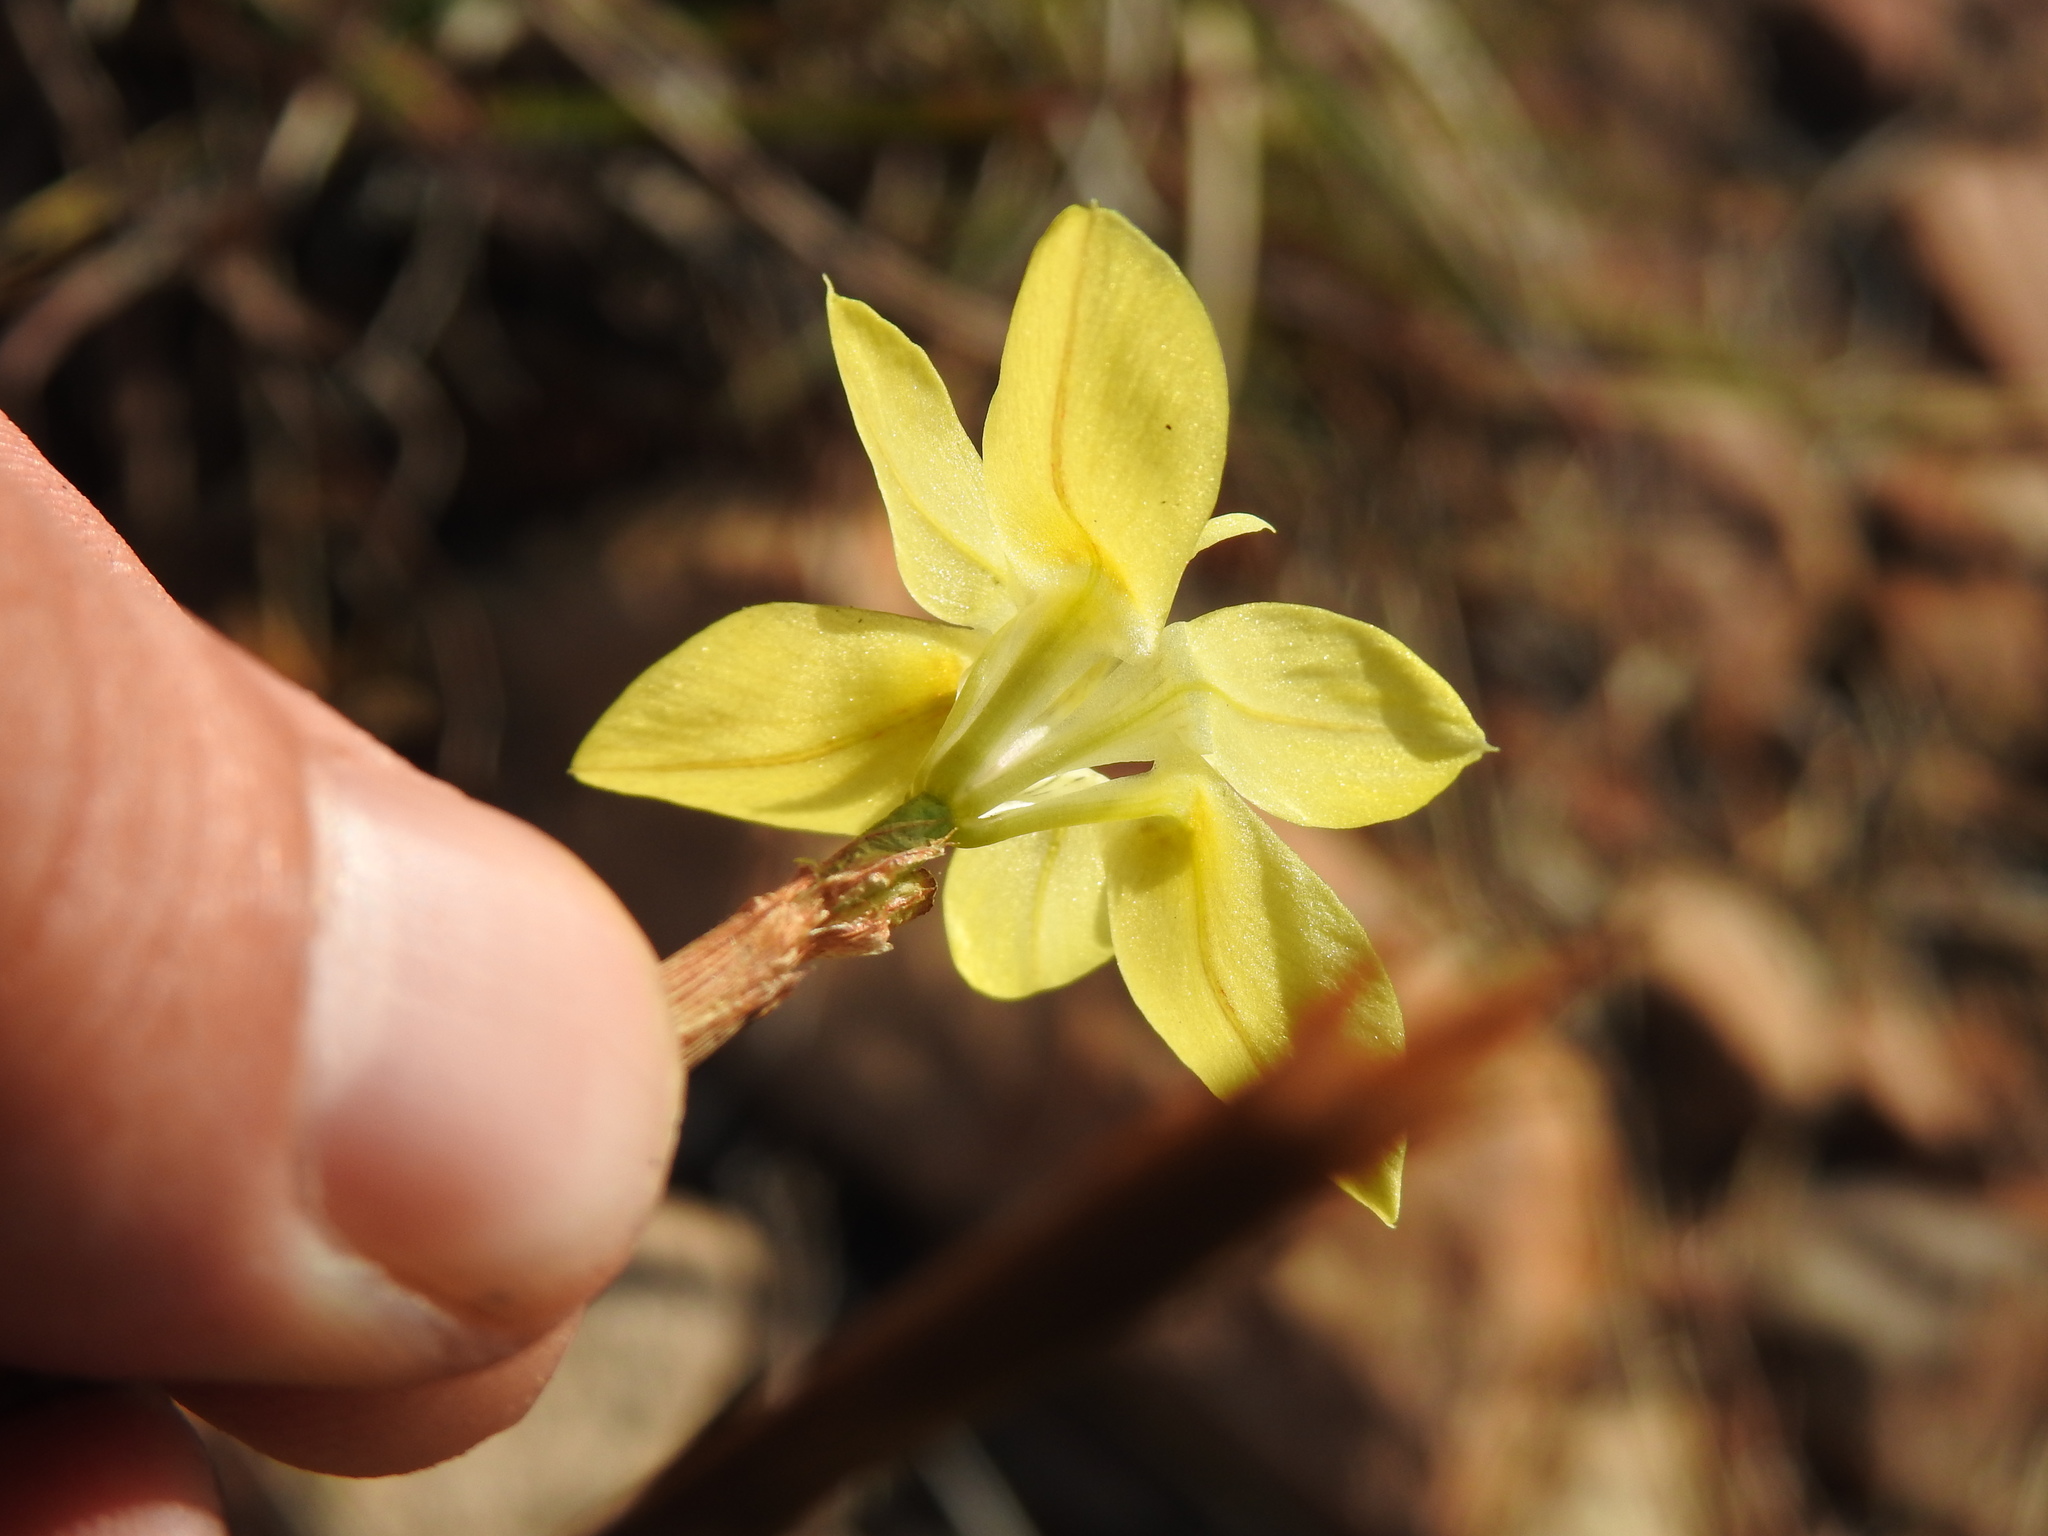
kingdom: Plantae
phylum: Tracheophyta
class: Liliopsida
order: Asparagales
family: Iridaceae
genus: Moraea
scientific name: Moraea bituminosa
